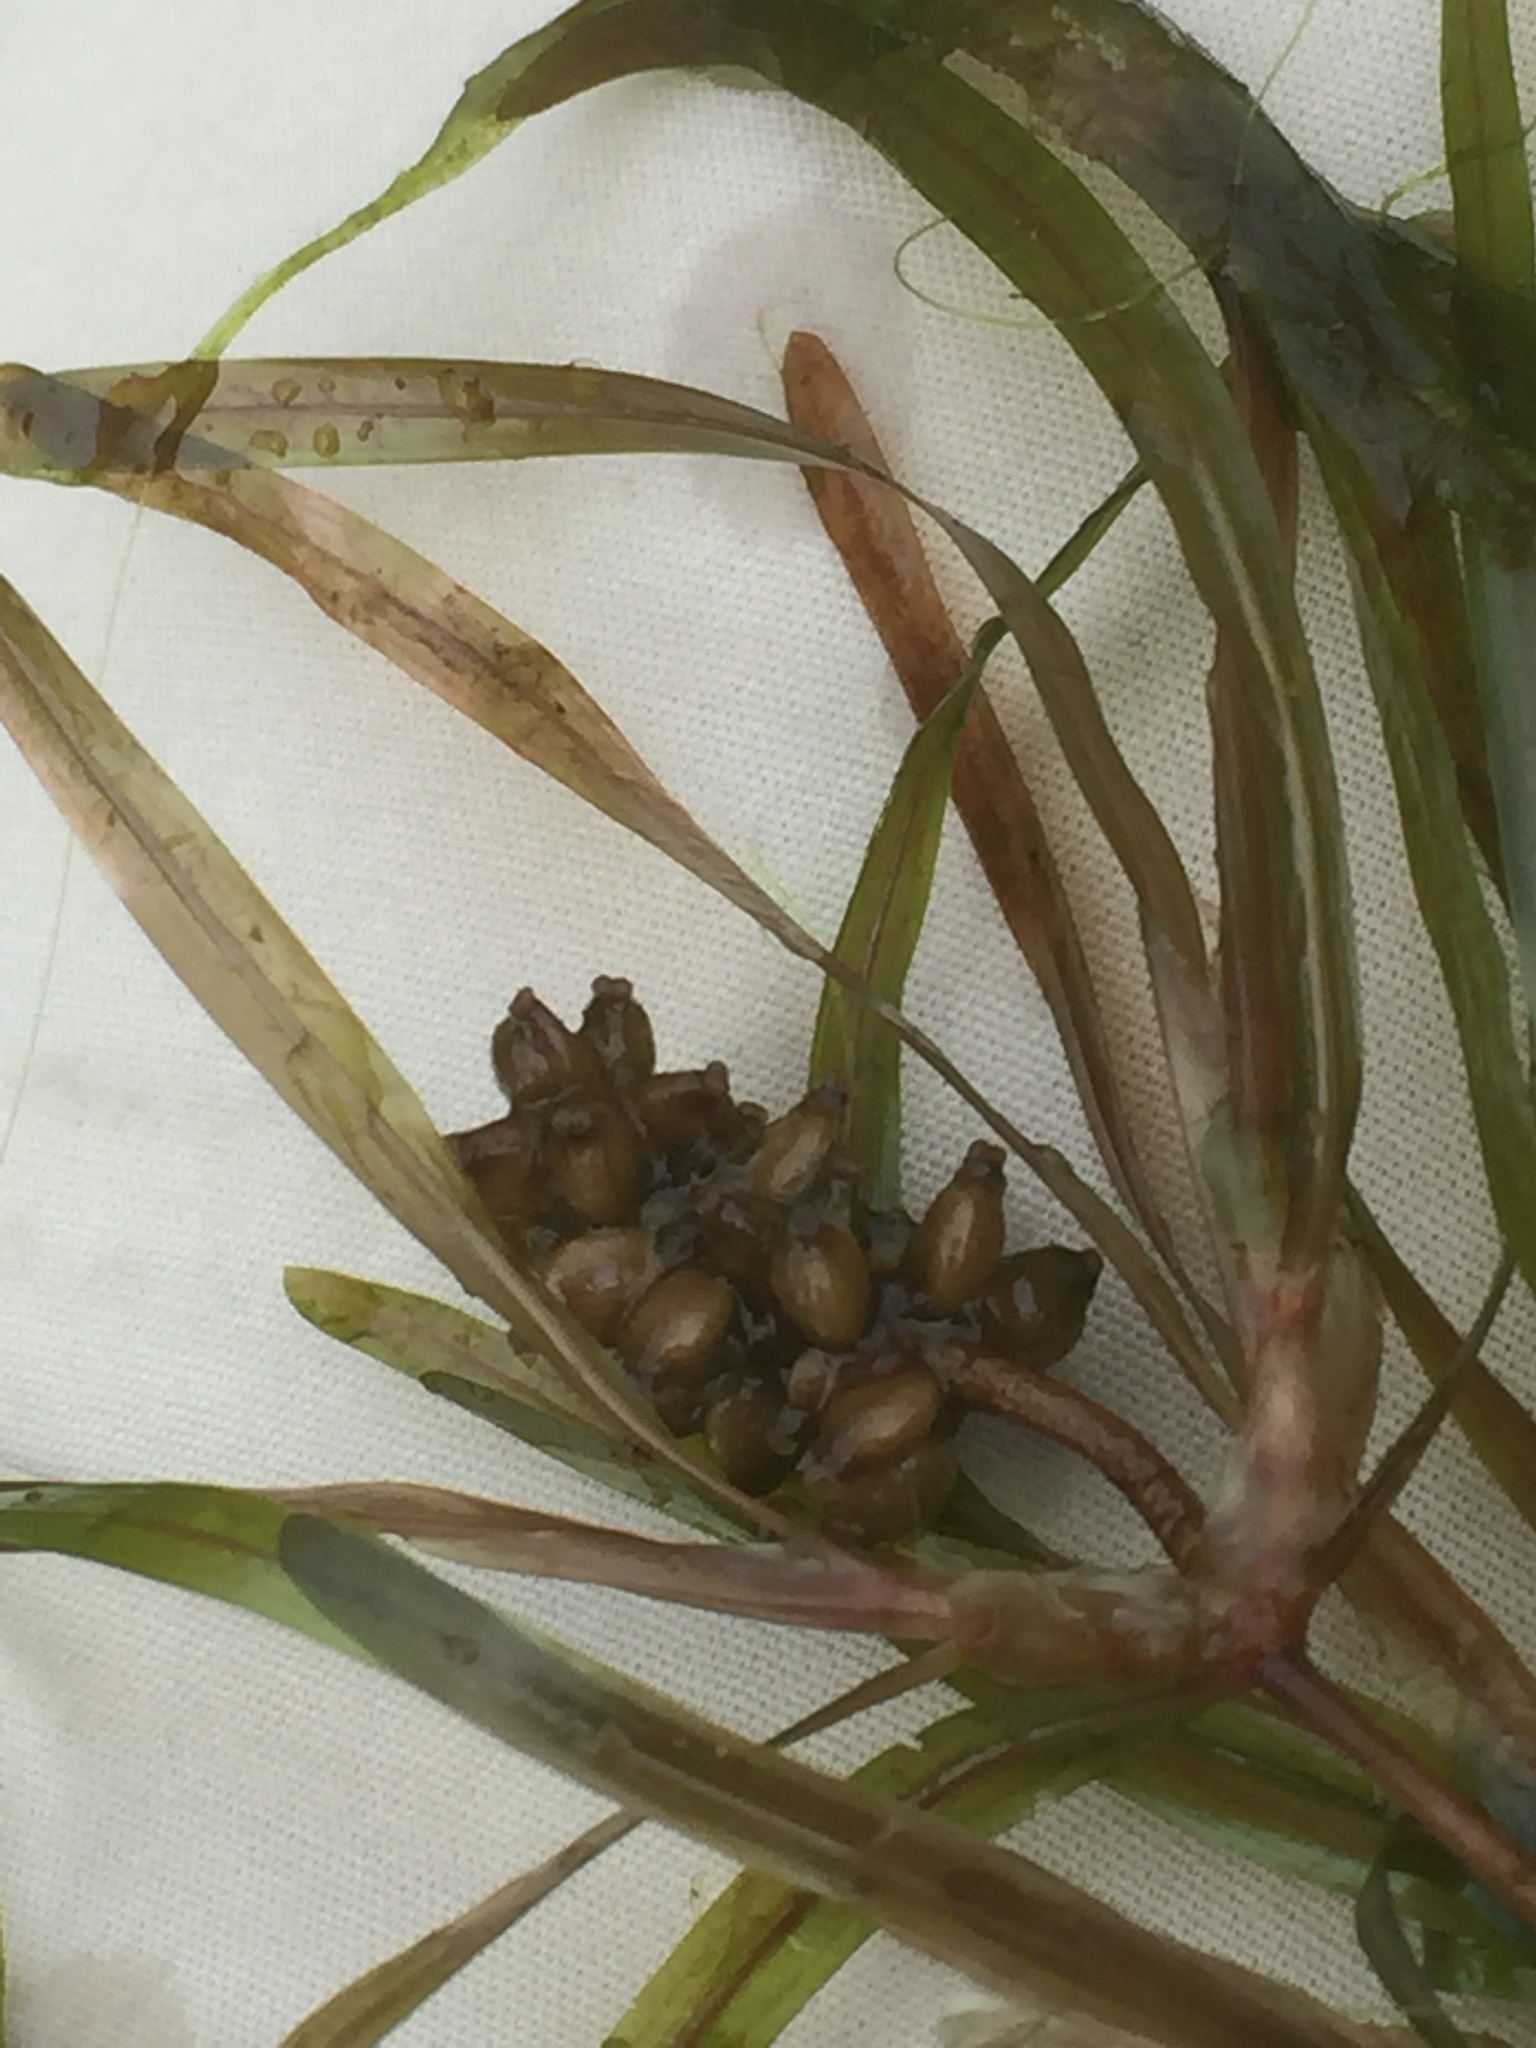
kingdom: Plantae
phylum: Tracheophyta
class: Liliopsida
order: Alismatales
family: Potamogetonaceae
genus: Potamogeton
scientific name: Potamogeton obtusifolius
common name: Blunt-leaved pondweed
